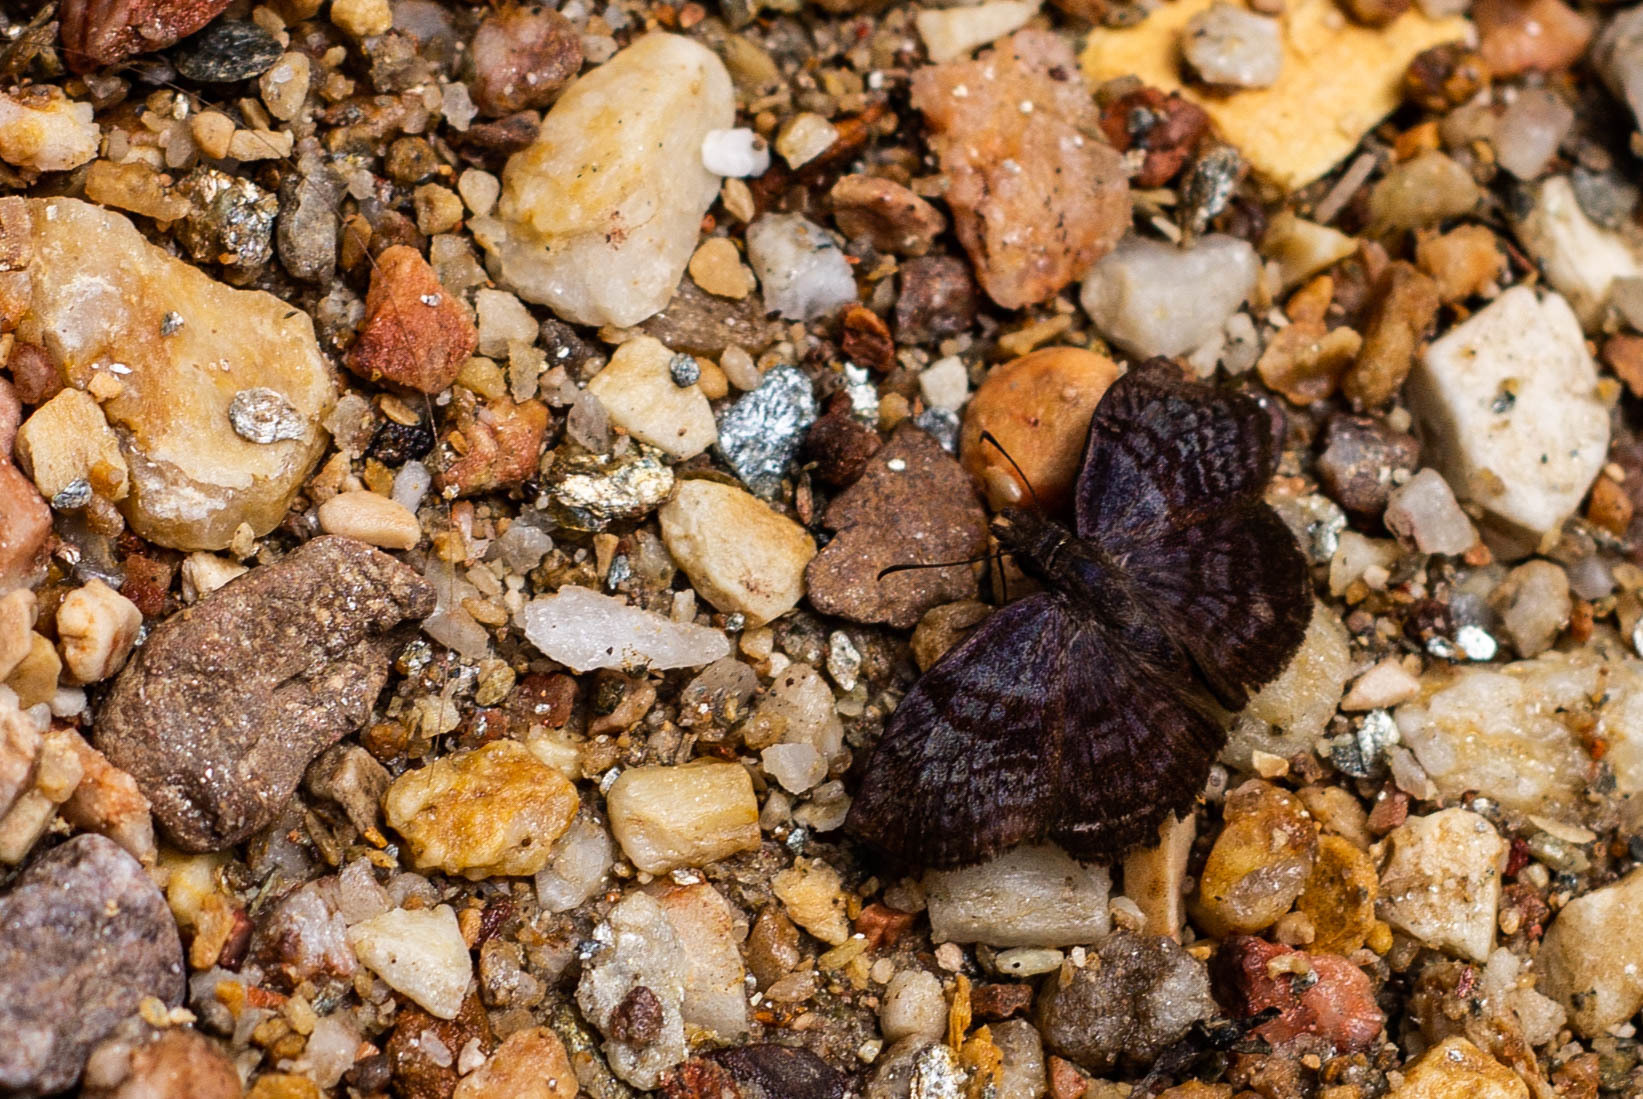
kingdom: Animalia
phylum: Arthropoda
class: Insecta
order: Lepidoptera
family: Hesperiidae
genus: Cycloglypha
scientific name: Cycloglypha polax
